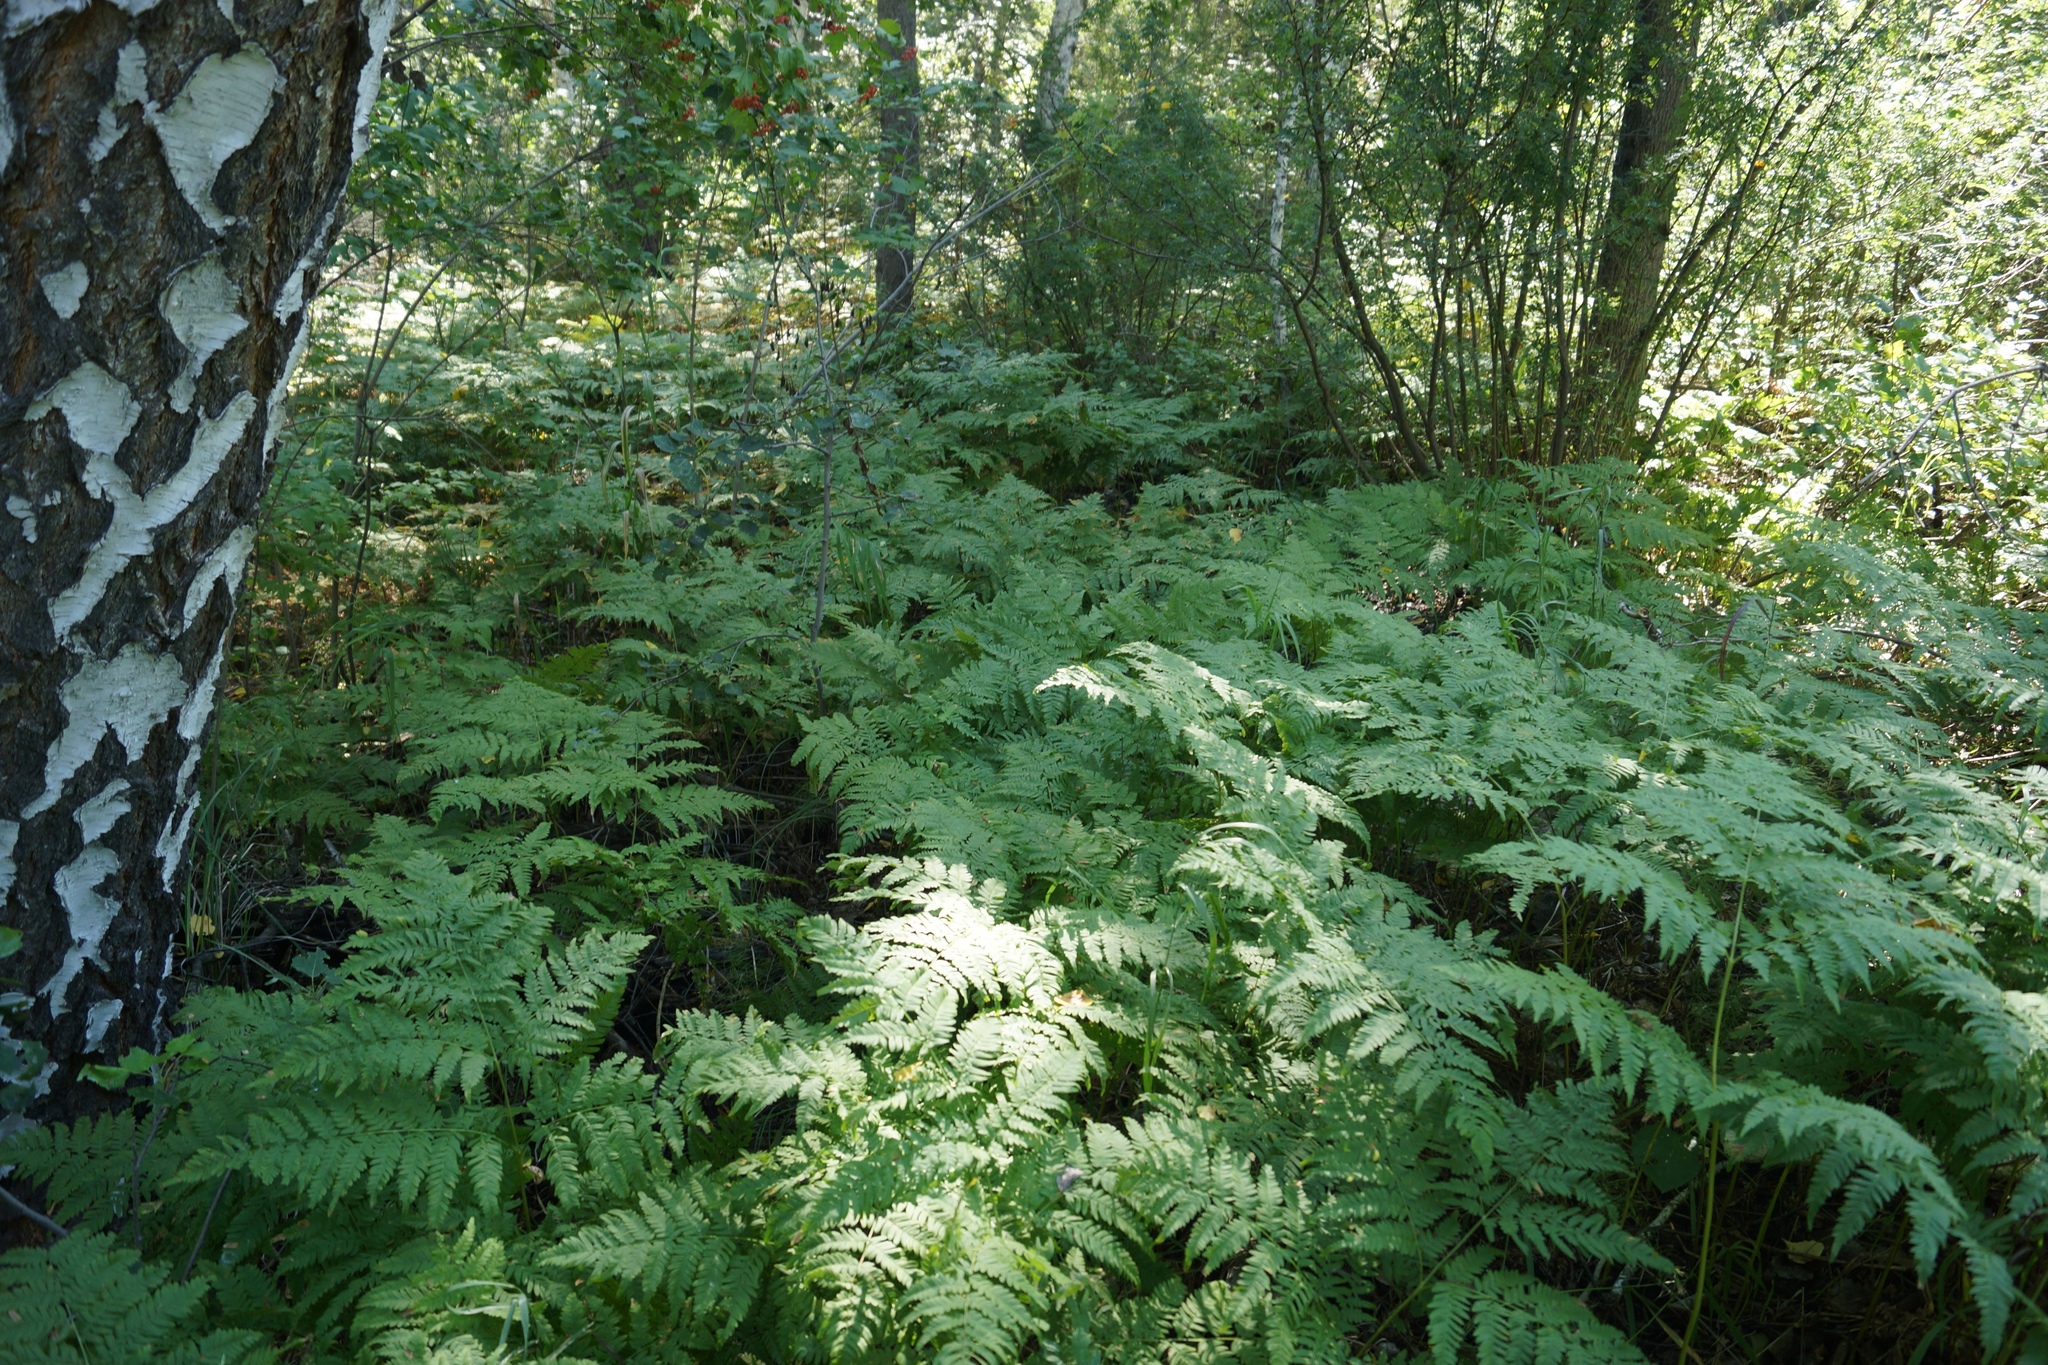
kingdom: Plantae
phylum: Tracheophyta
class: Polypodiopsida
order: Polypodiales
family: Dennstaedtiaceae
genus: Pteridium
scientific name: Pteridium aquilinum
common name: Bracken
